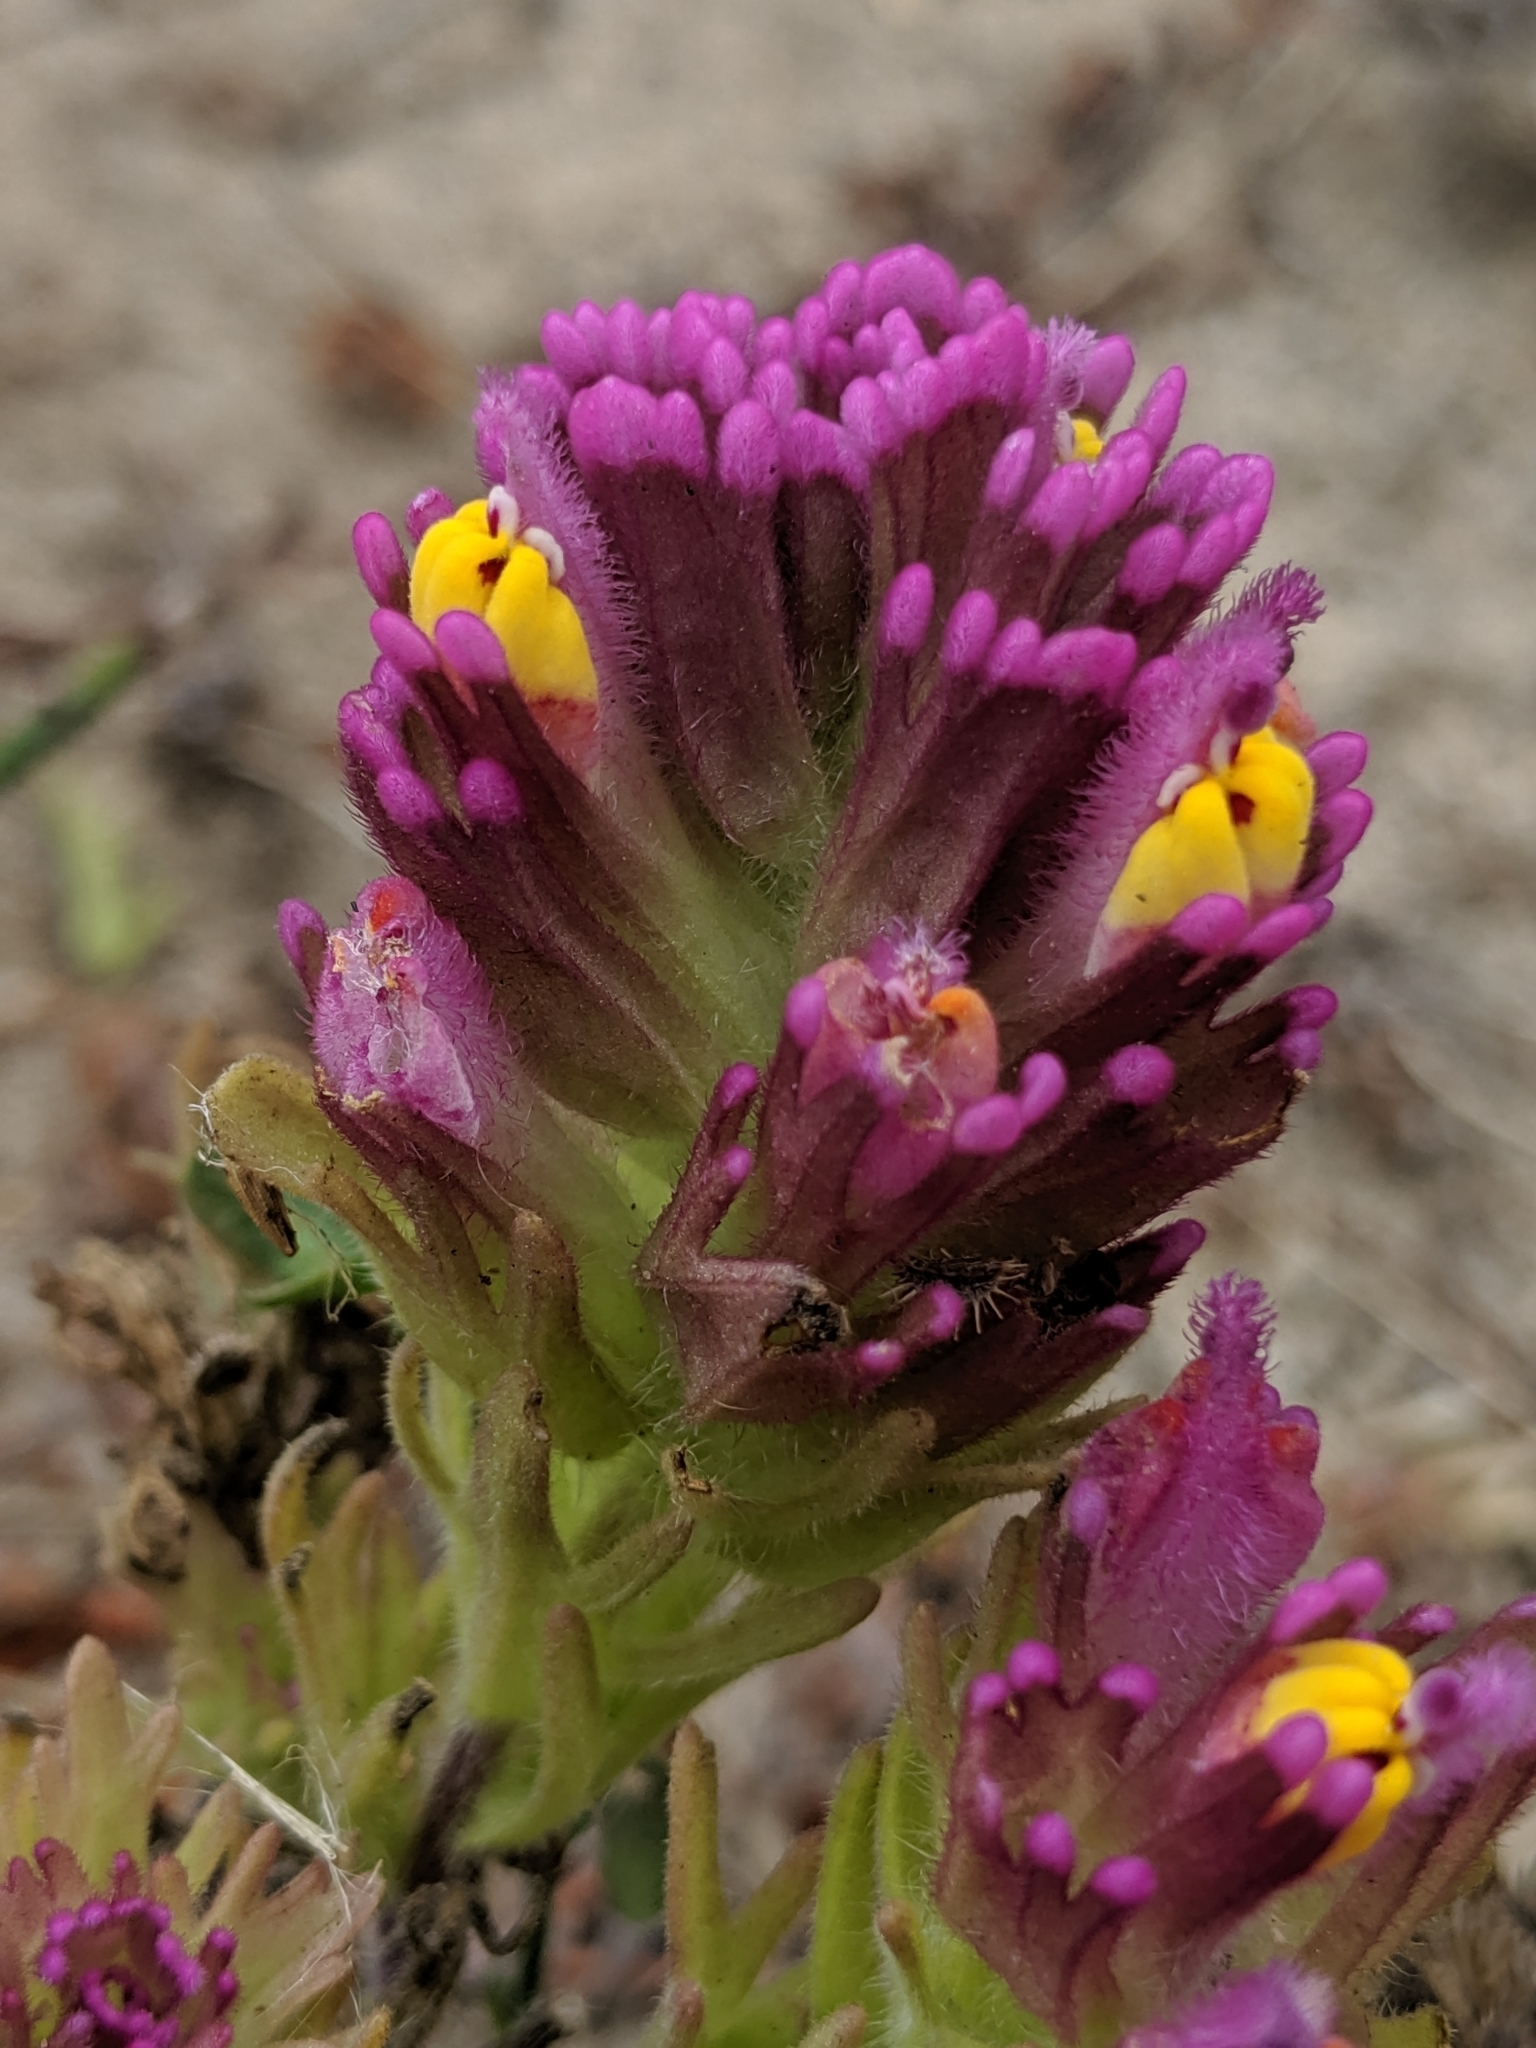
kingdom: Plantae
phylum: Tracheophyta
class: Magnoliopsida
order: Lamiales
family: Orobanchaceae
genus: Castilleja
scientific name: Castilleja exserta
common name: Purple owl-clover
